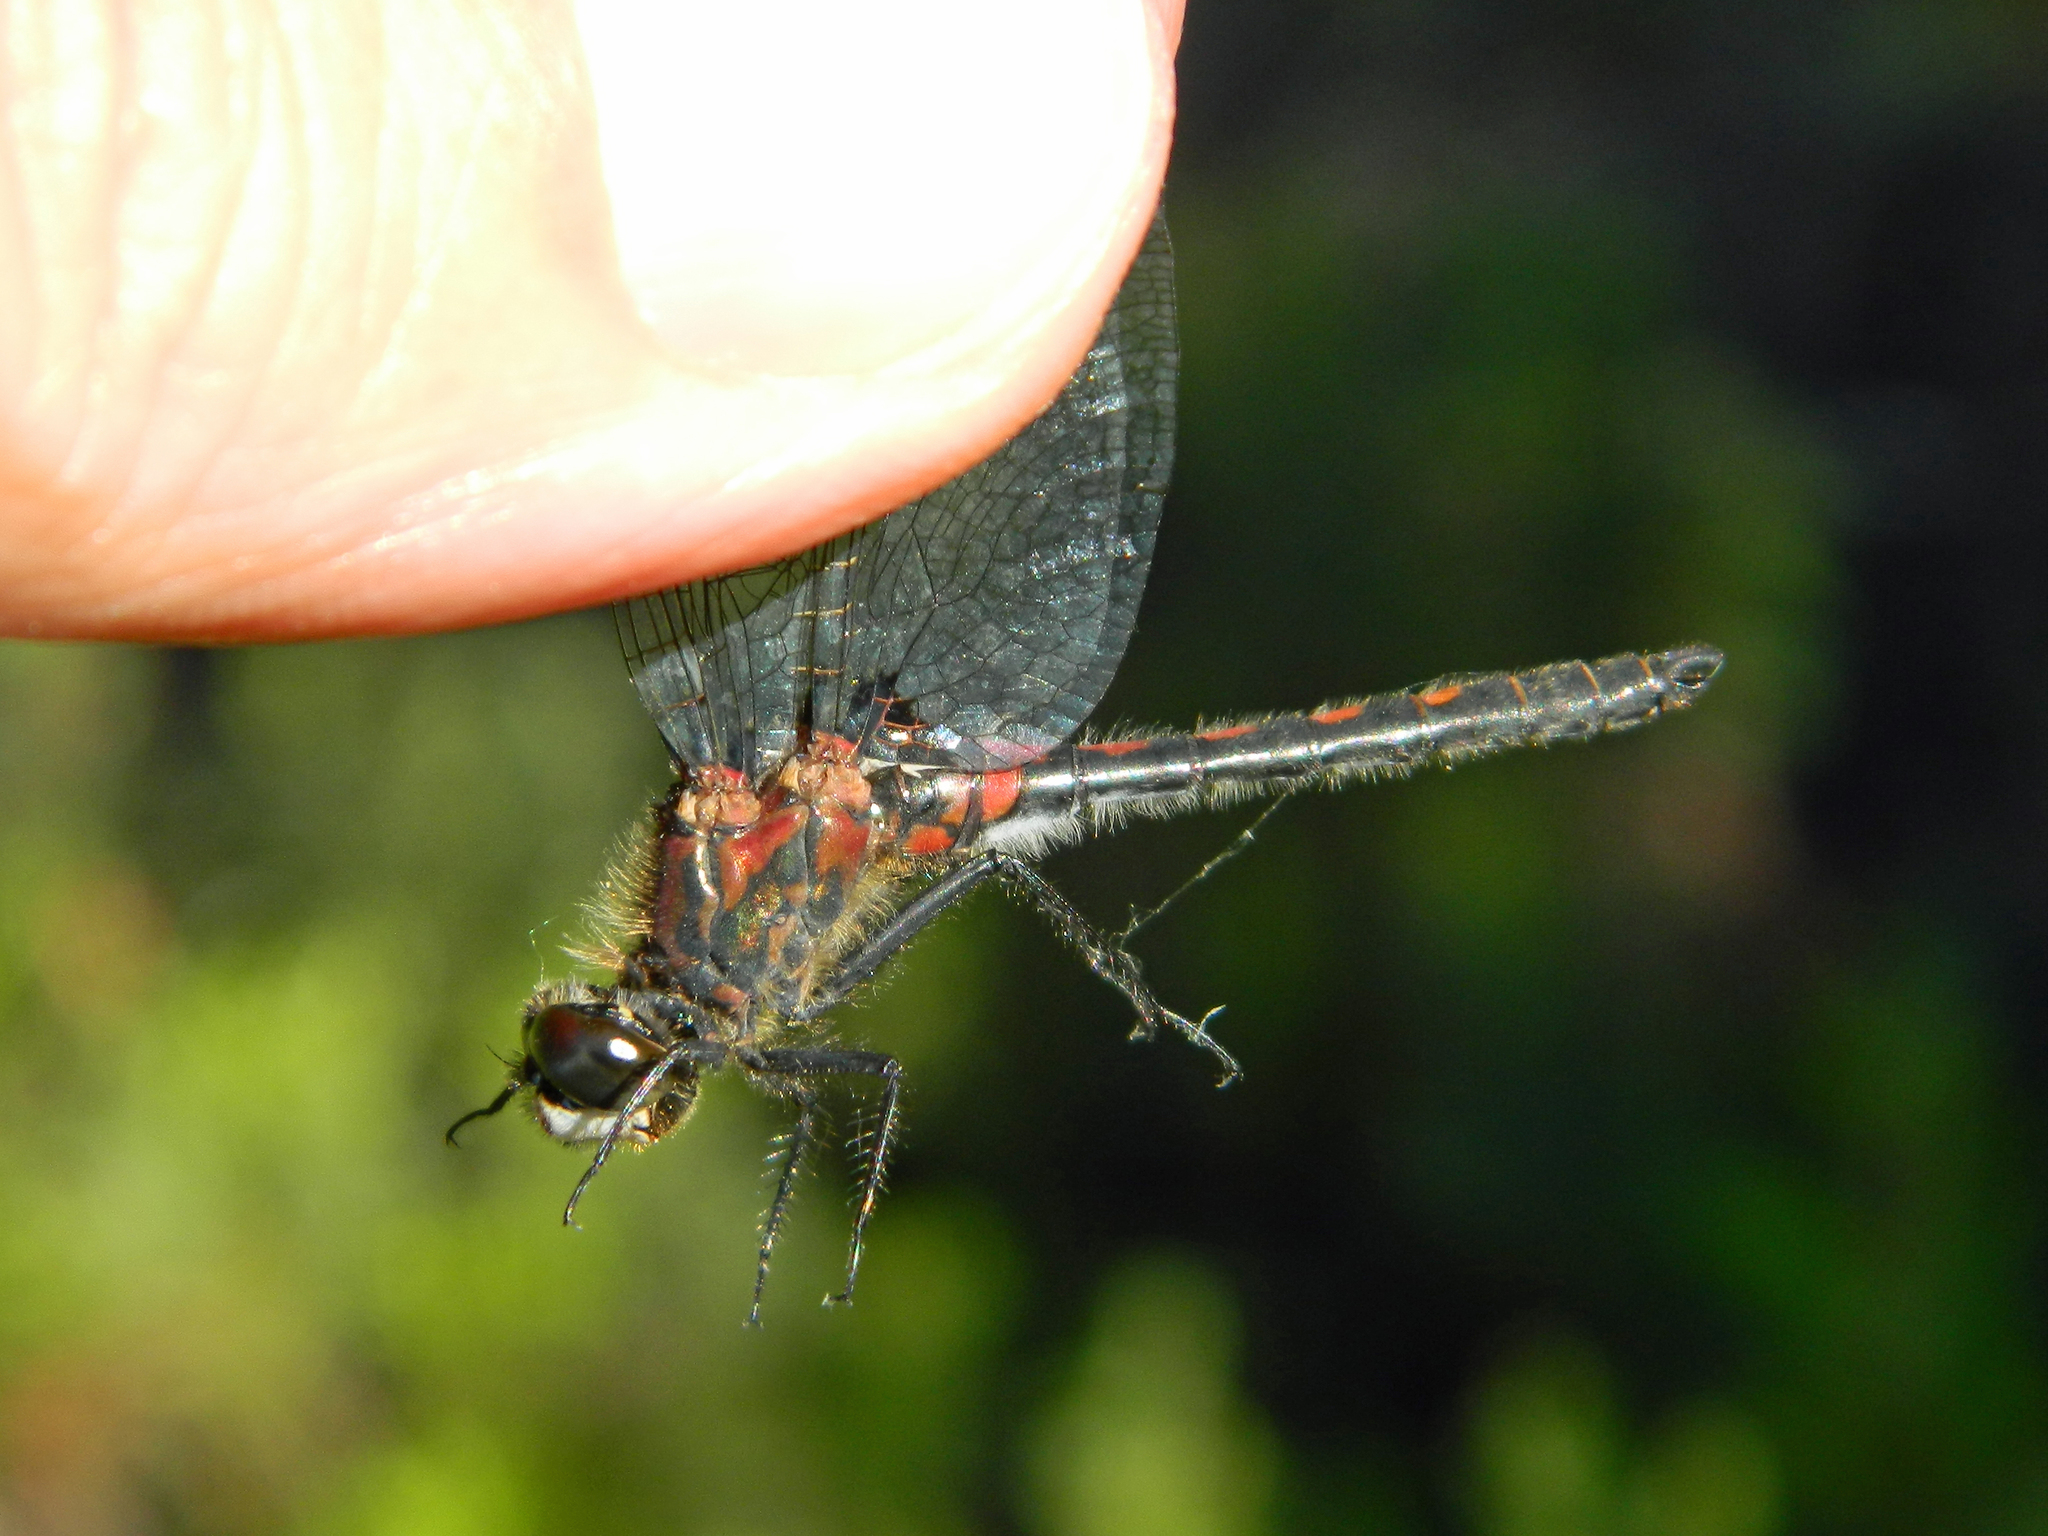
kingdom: Animalia
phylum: Arthropoda
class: Insecta
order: Odonata
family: Libellulidae
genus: Leucorrhinia
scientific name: Leucorrhinia hudsonica
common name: Hudsonian whiteface
